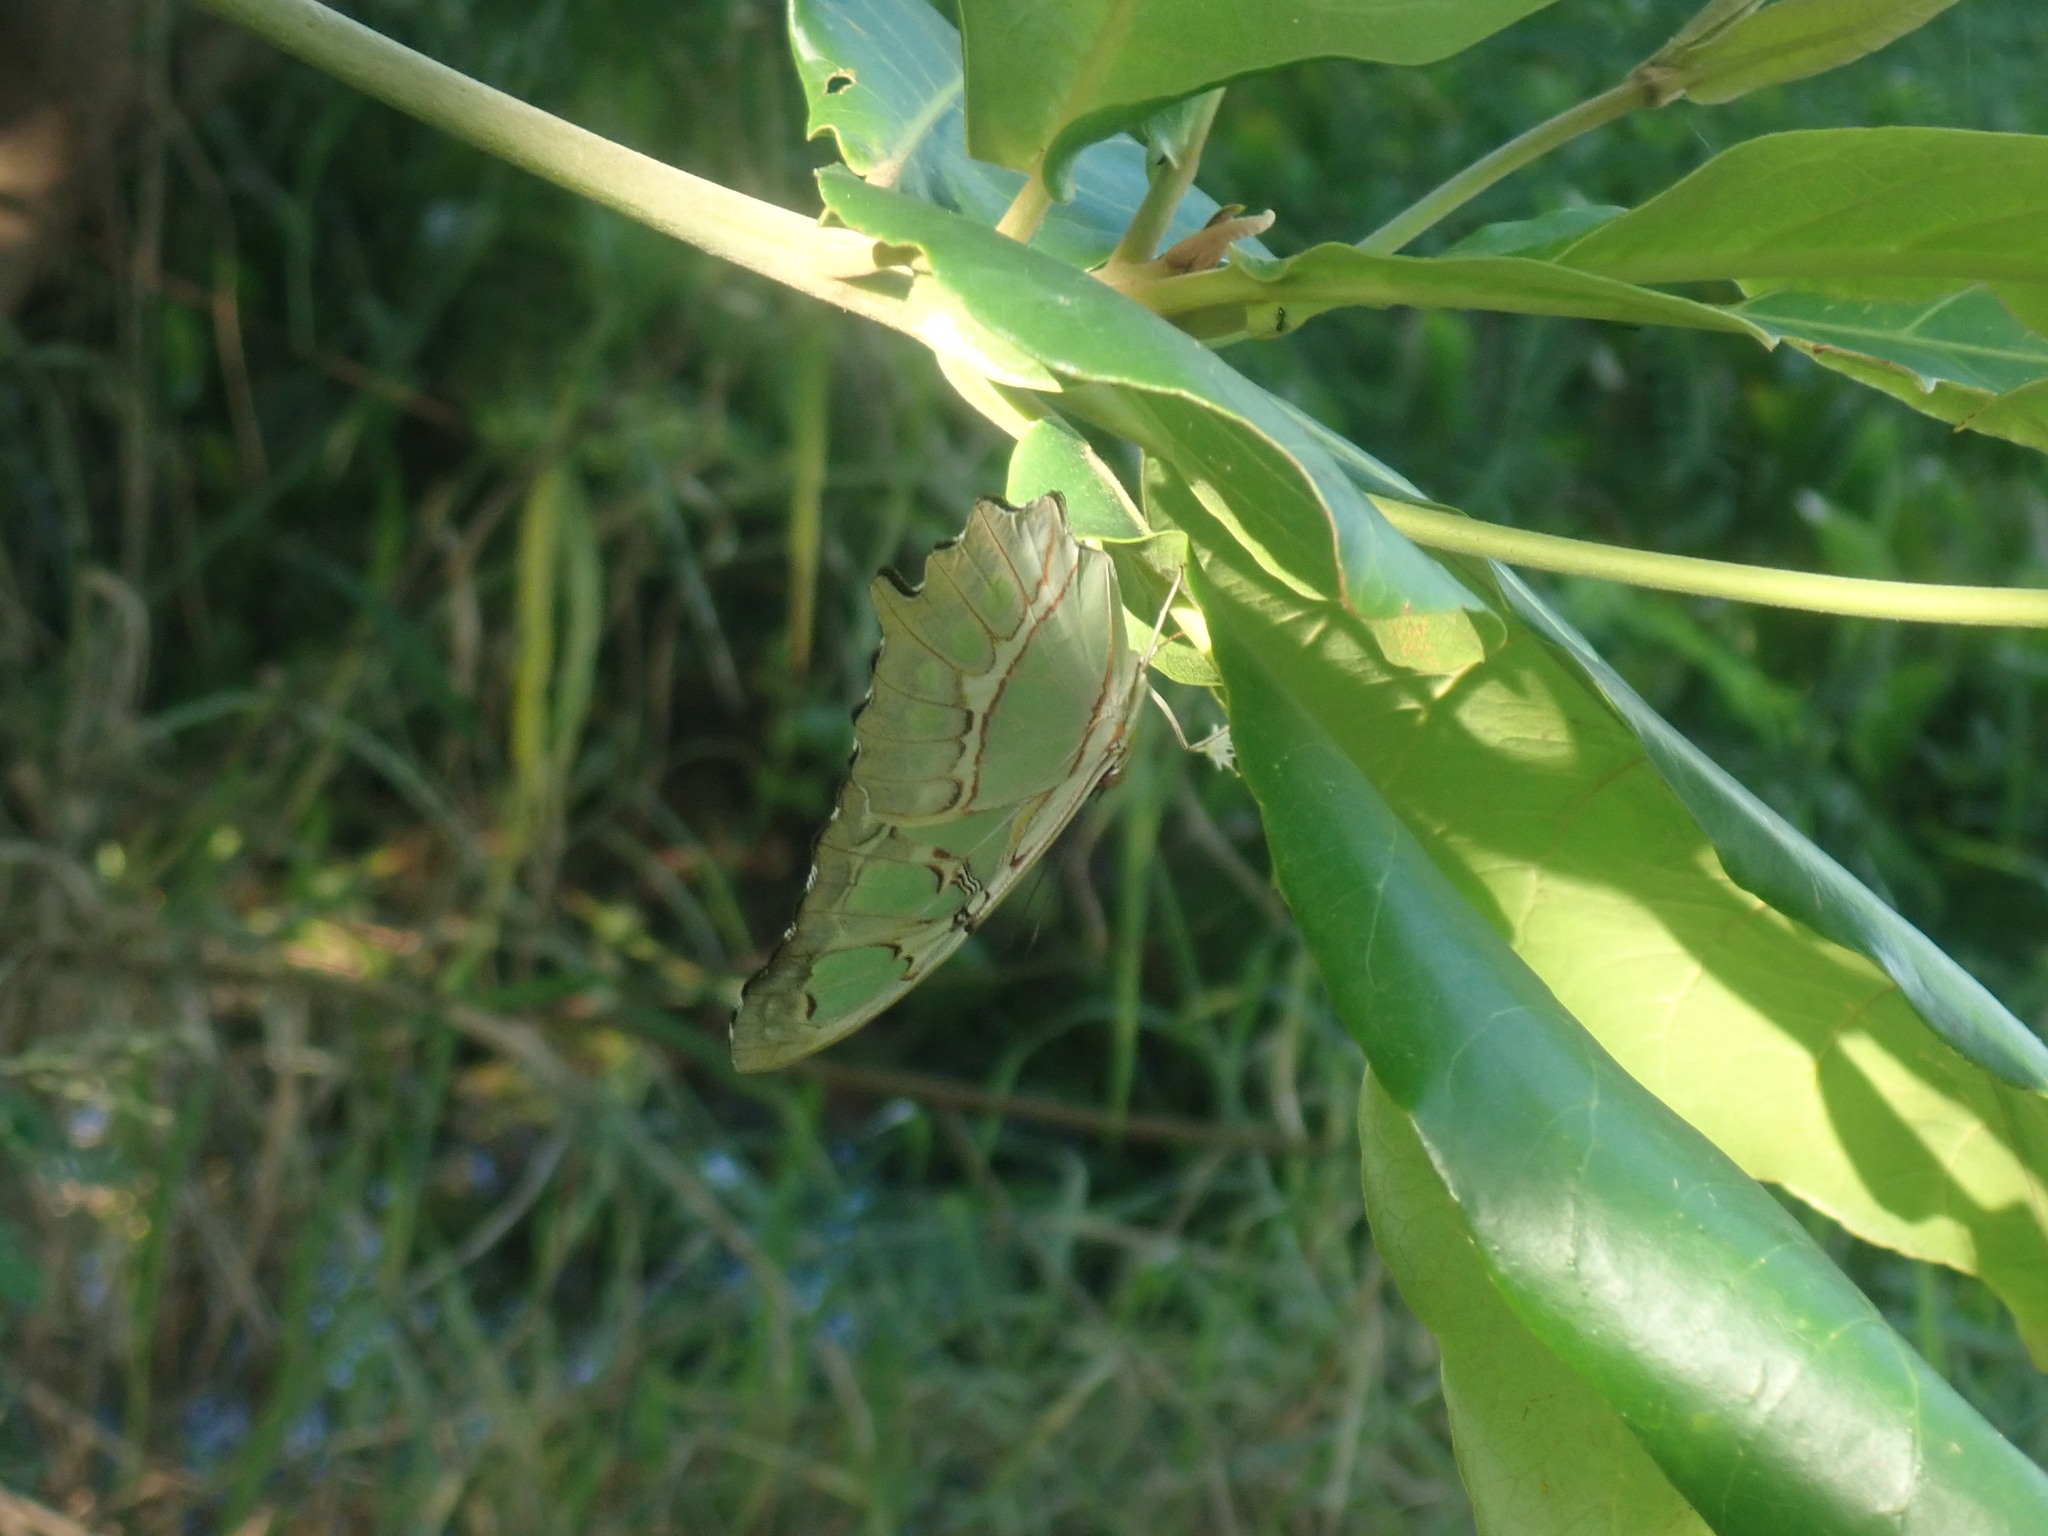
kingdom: Animalia
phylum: Arthropoda
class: Insecta
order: Lepidoptera
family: Nymphalidae
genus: Siproeta
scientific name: Siproeta stelenes
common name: Malachite
